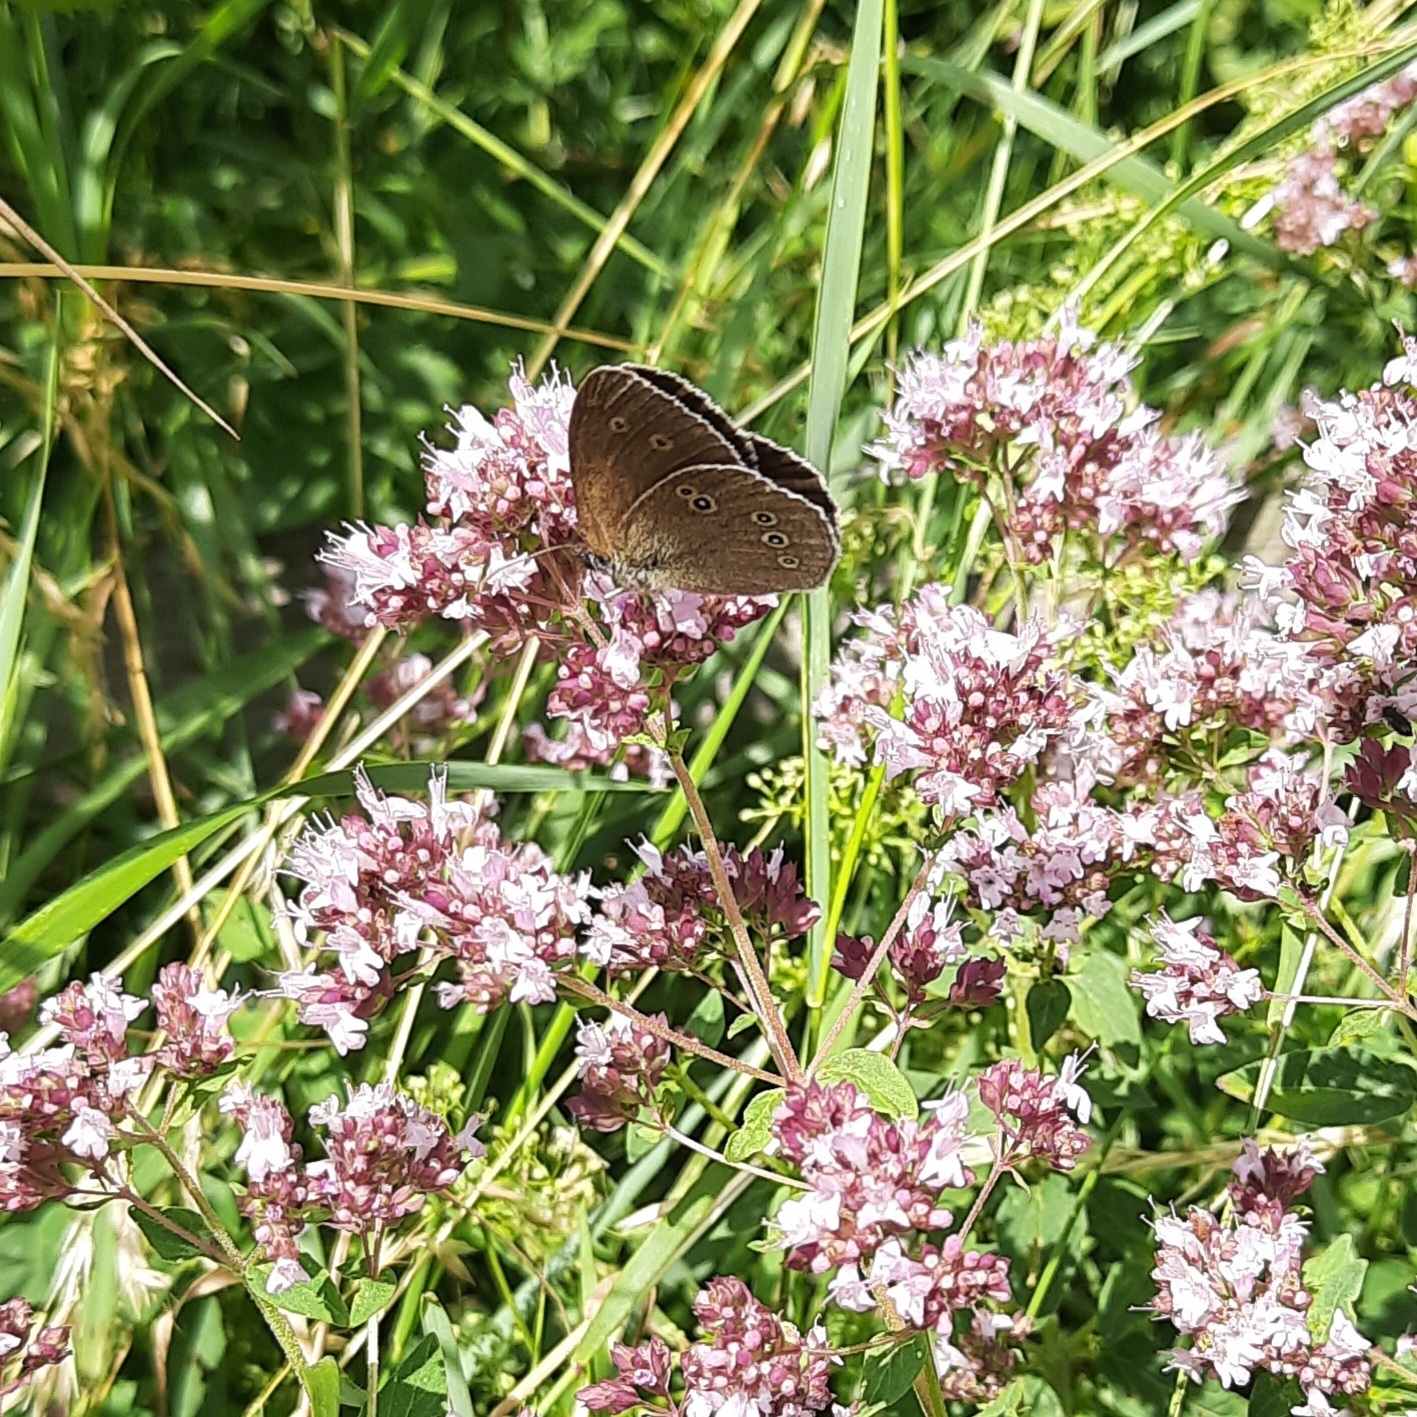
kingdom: Animalia
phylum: Arthropoda
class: Insecta
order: Lepidoptera
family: Nymphalidae
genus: Aphantopus
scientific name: Aphantopus hyperantus
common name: Ringlet
